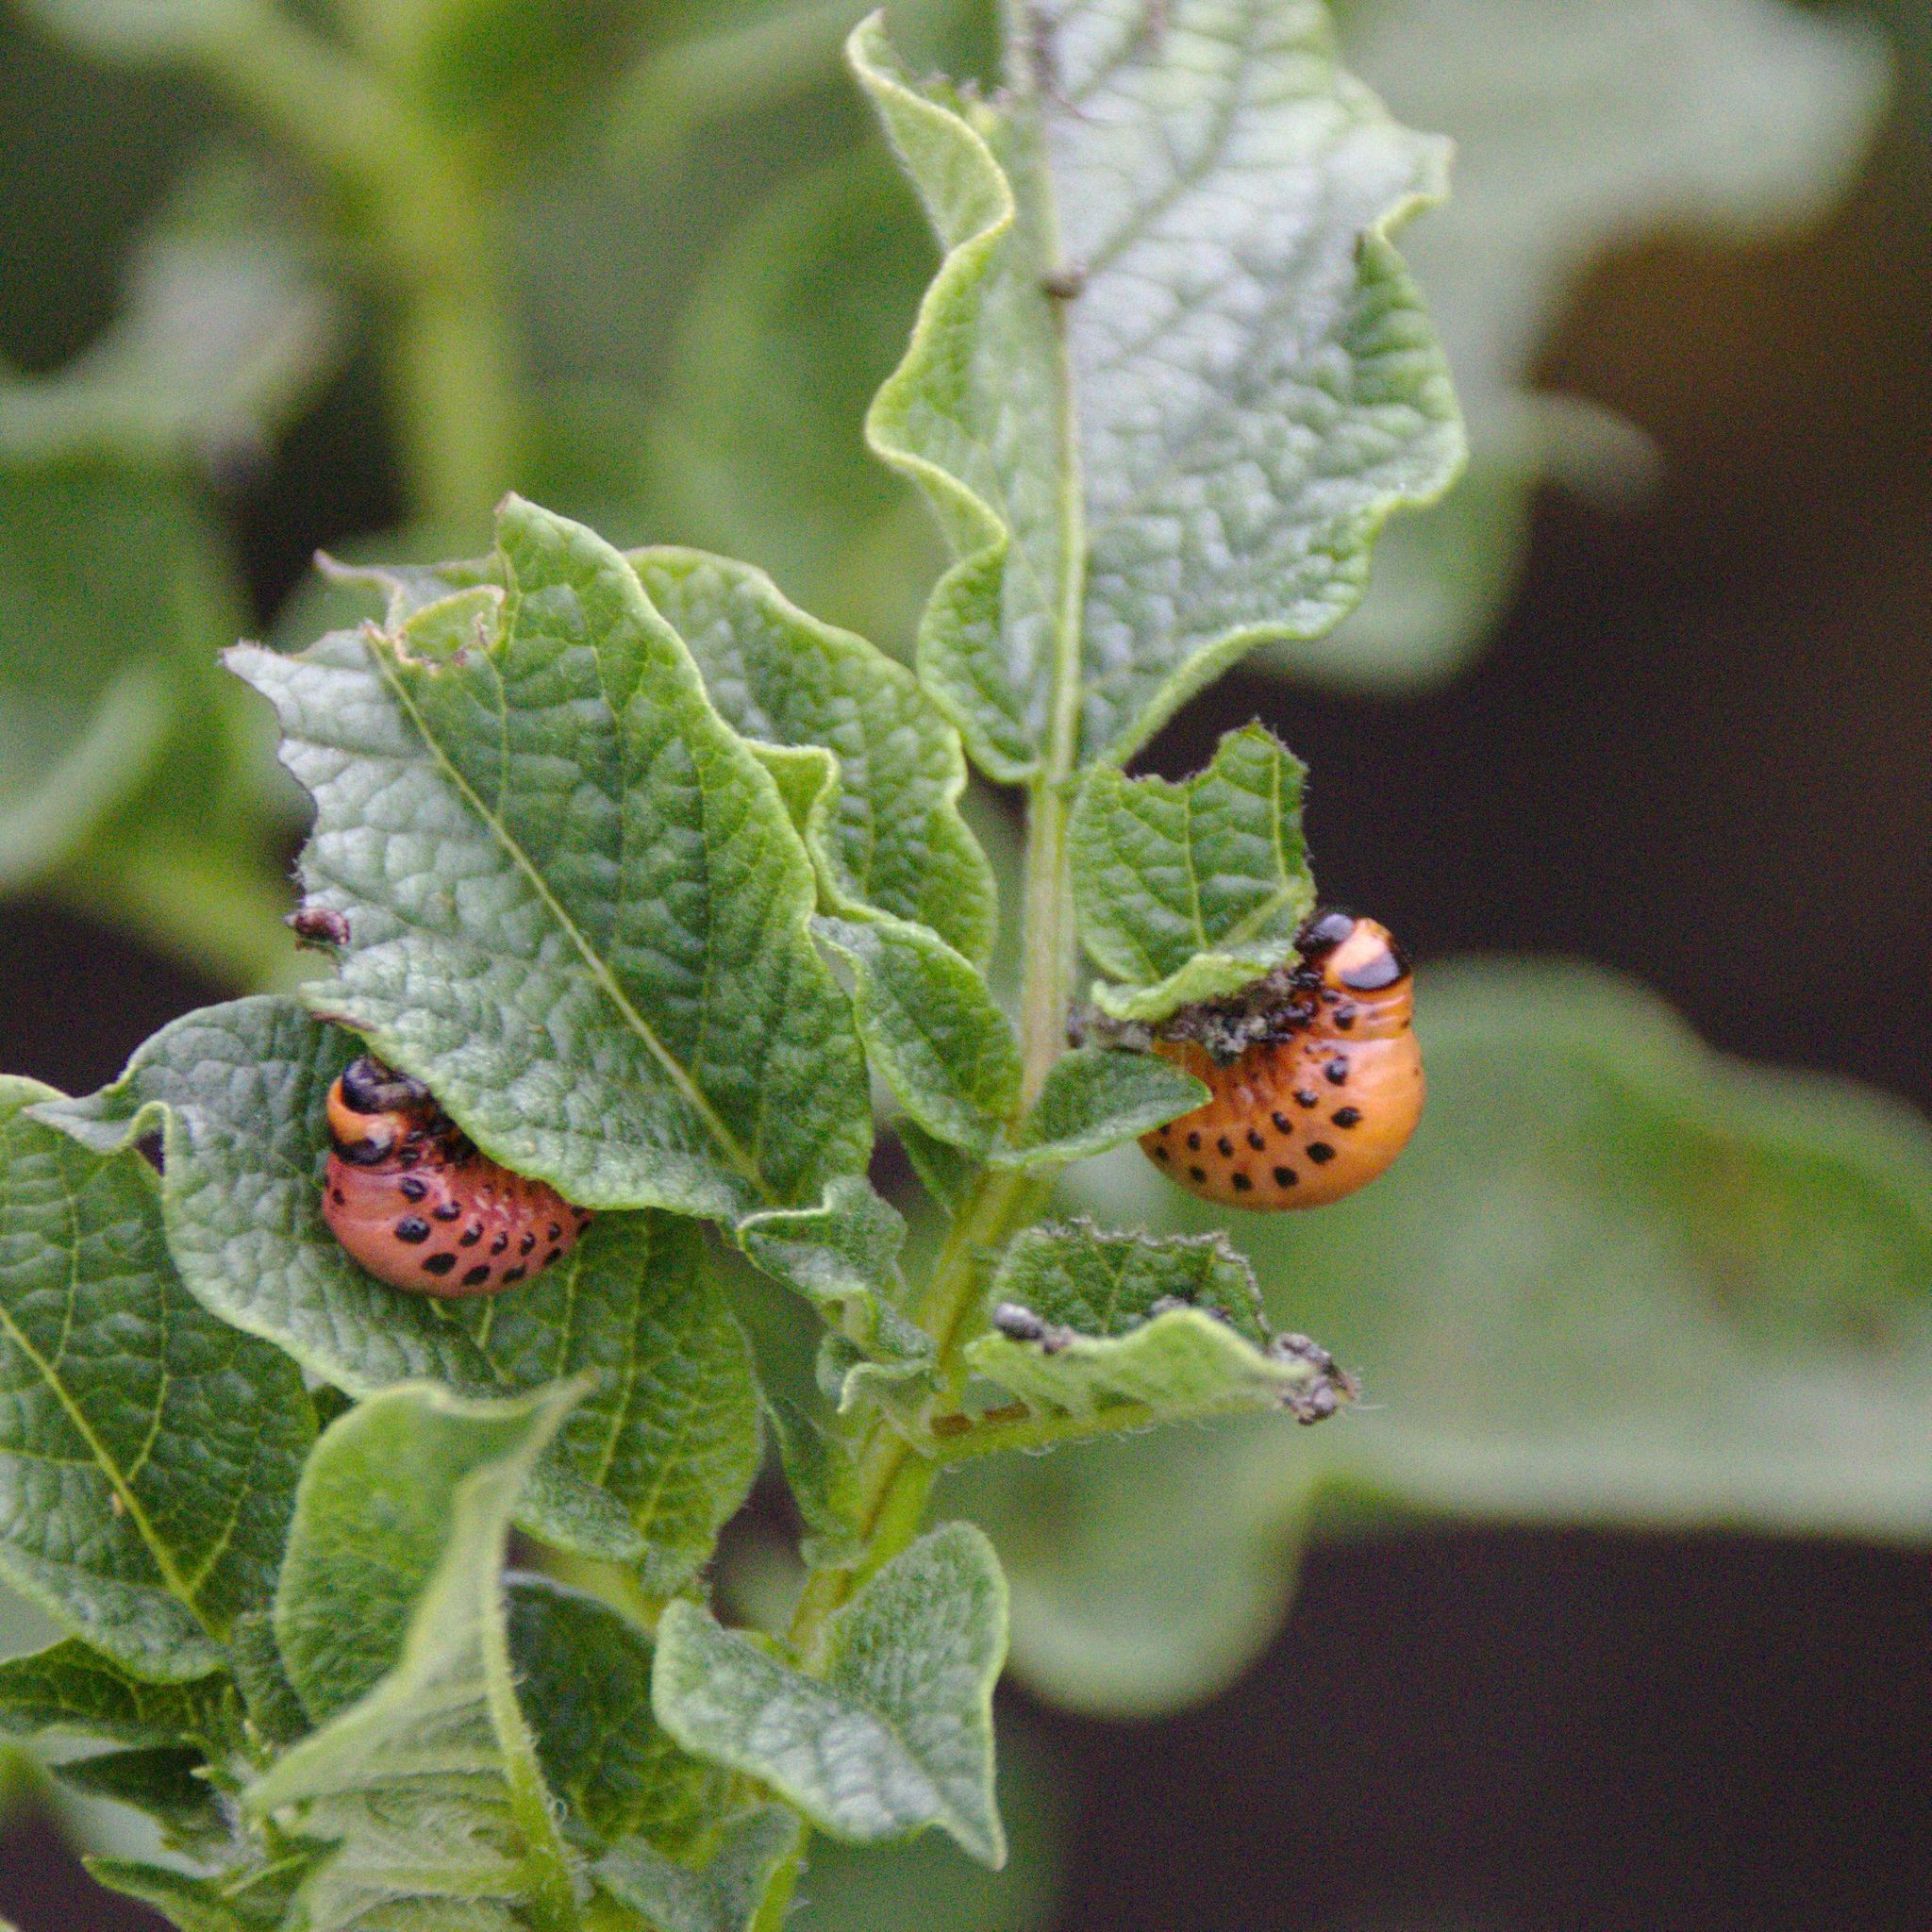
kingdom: Animalia
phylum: Arthropoda
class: Insecta
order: Coleoptera
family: Chrysomelidae
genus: Leptinotarsa
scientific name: Leptinotarsa decemlineata
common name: Colorado potato beetle
